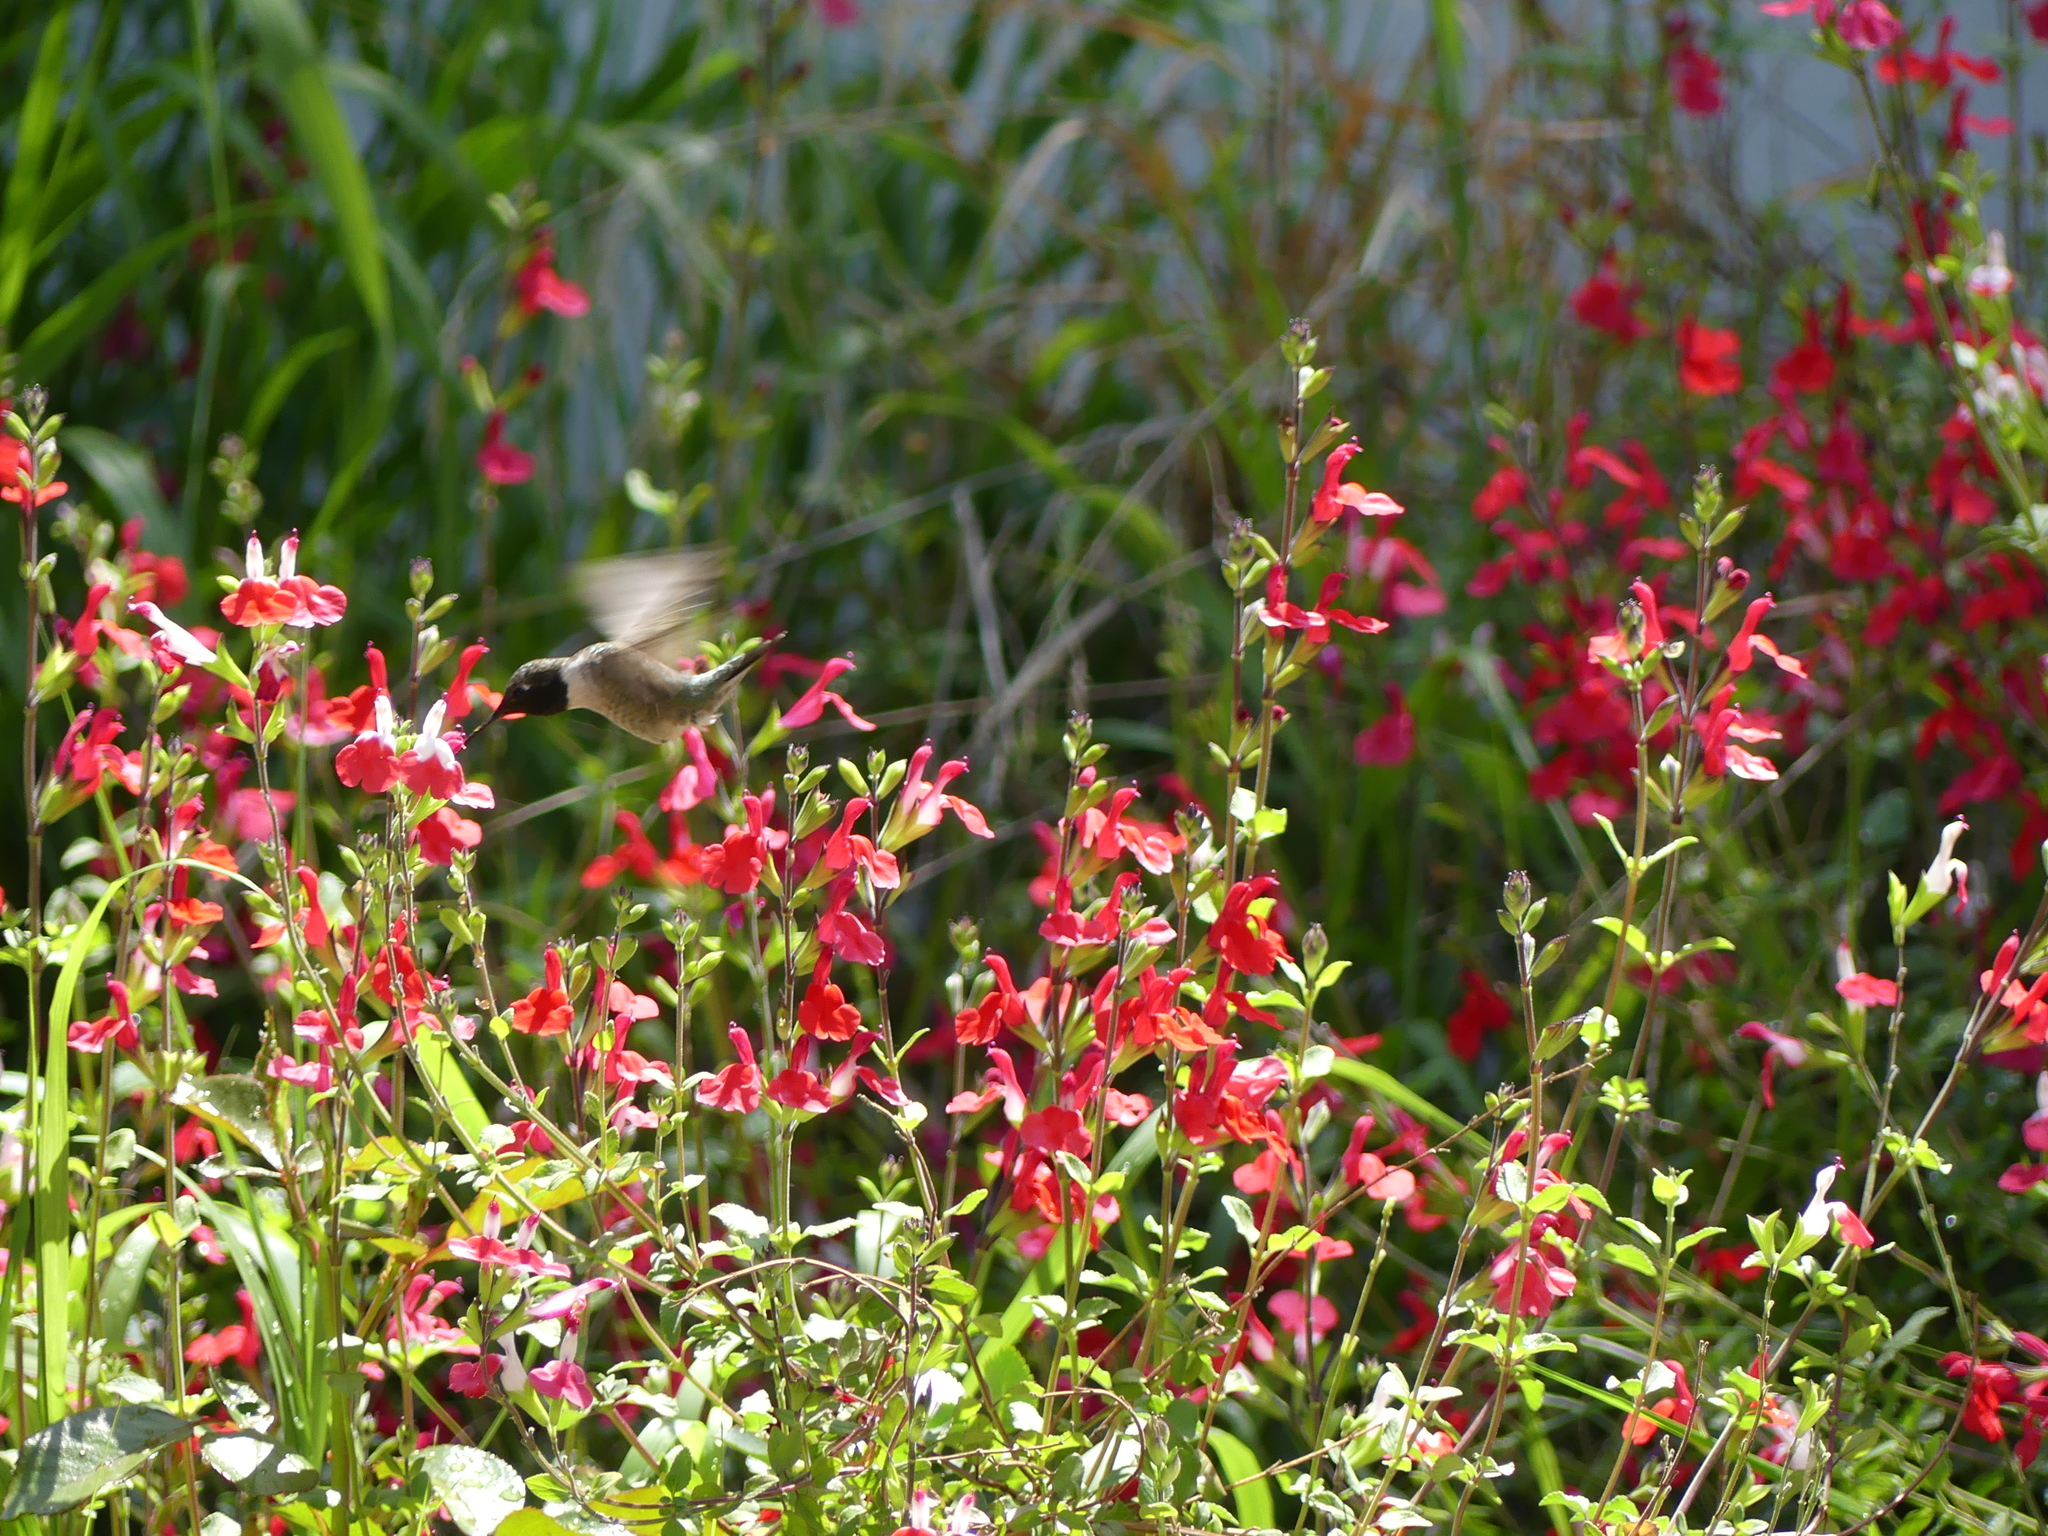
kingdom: Animalia
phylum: Chordata
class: Aves
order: Apodiformes
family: Trochilidae
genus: Archilochus
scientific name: Archilochus alexandri
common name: Black-chinned hummingbird
